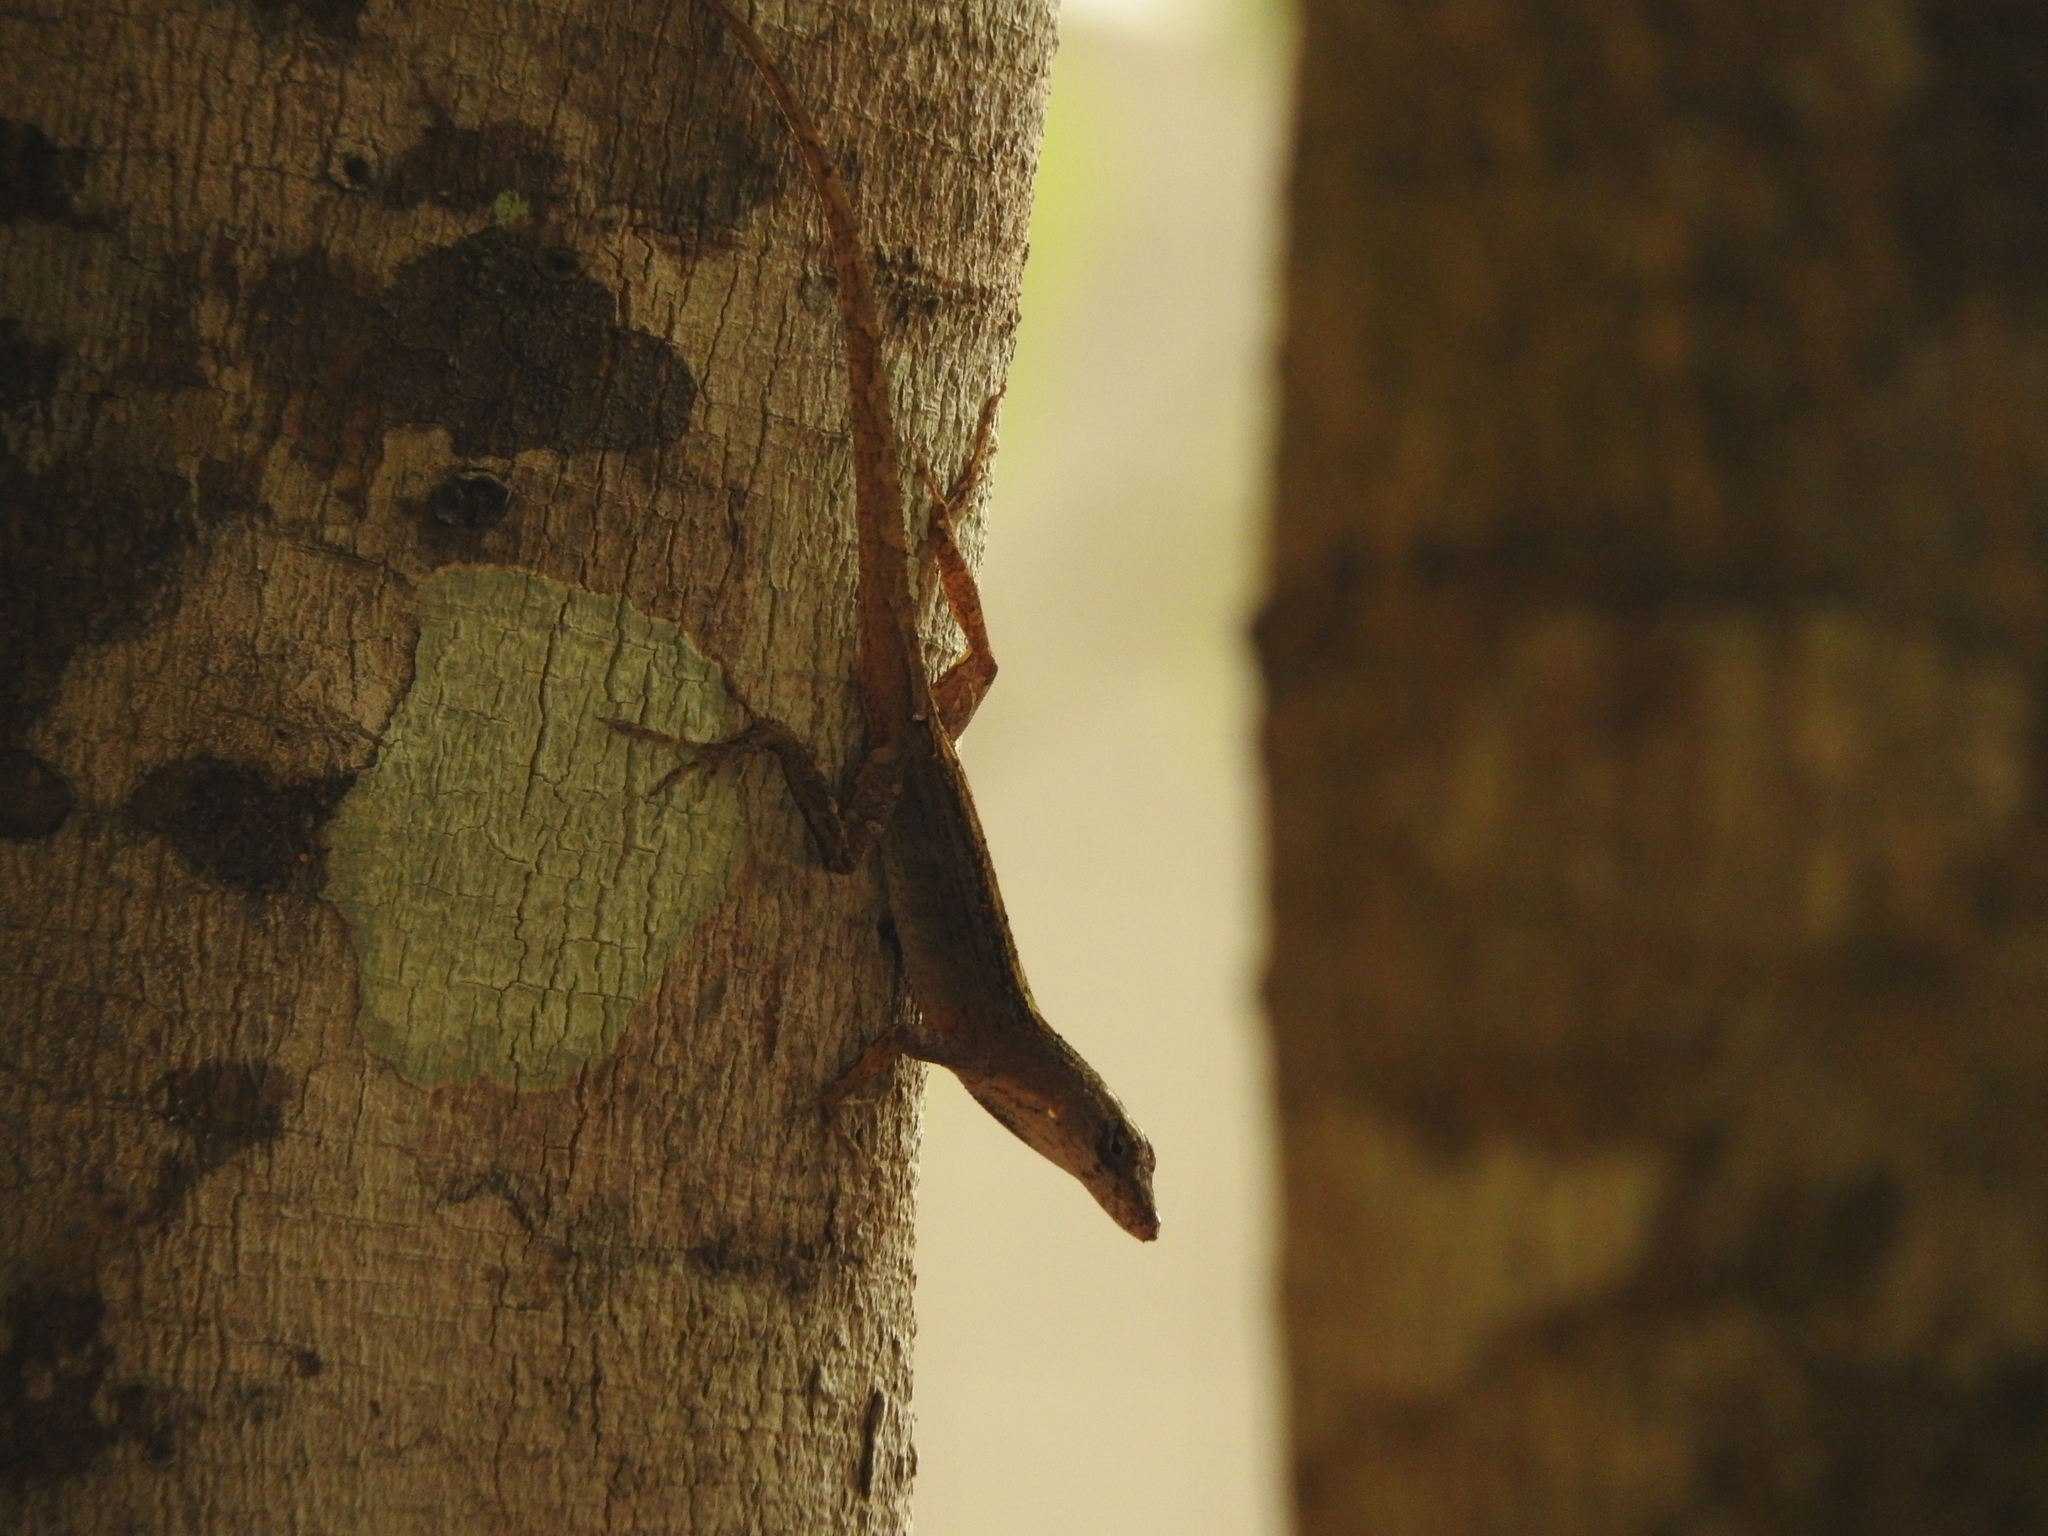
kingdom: Animalia
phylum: Chordata
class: Squamata
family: Dactyloidae
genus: Anolis
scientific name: Anolis sagrei
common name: Brown anole
